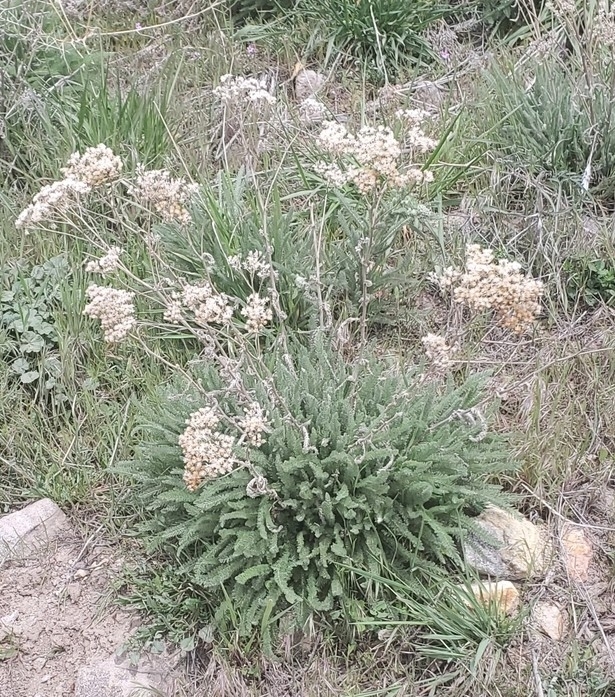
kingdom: Plantae
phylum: Tracheophyta
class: Magnoliopsida
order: Asterales
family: Asteraceae
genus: Achillea
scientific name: Achillea millefolium
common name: Yarrow
